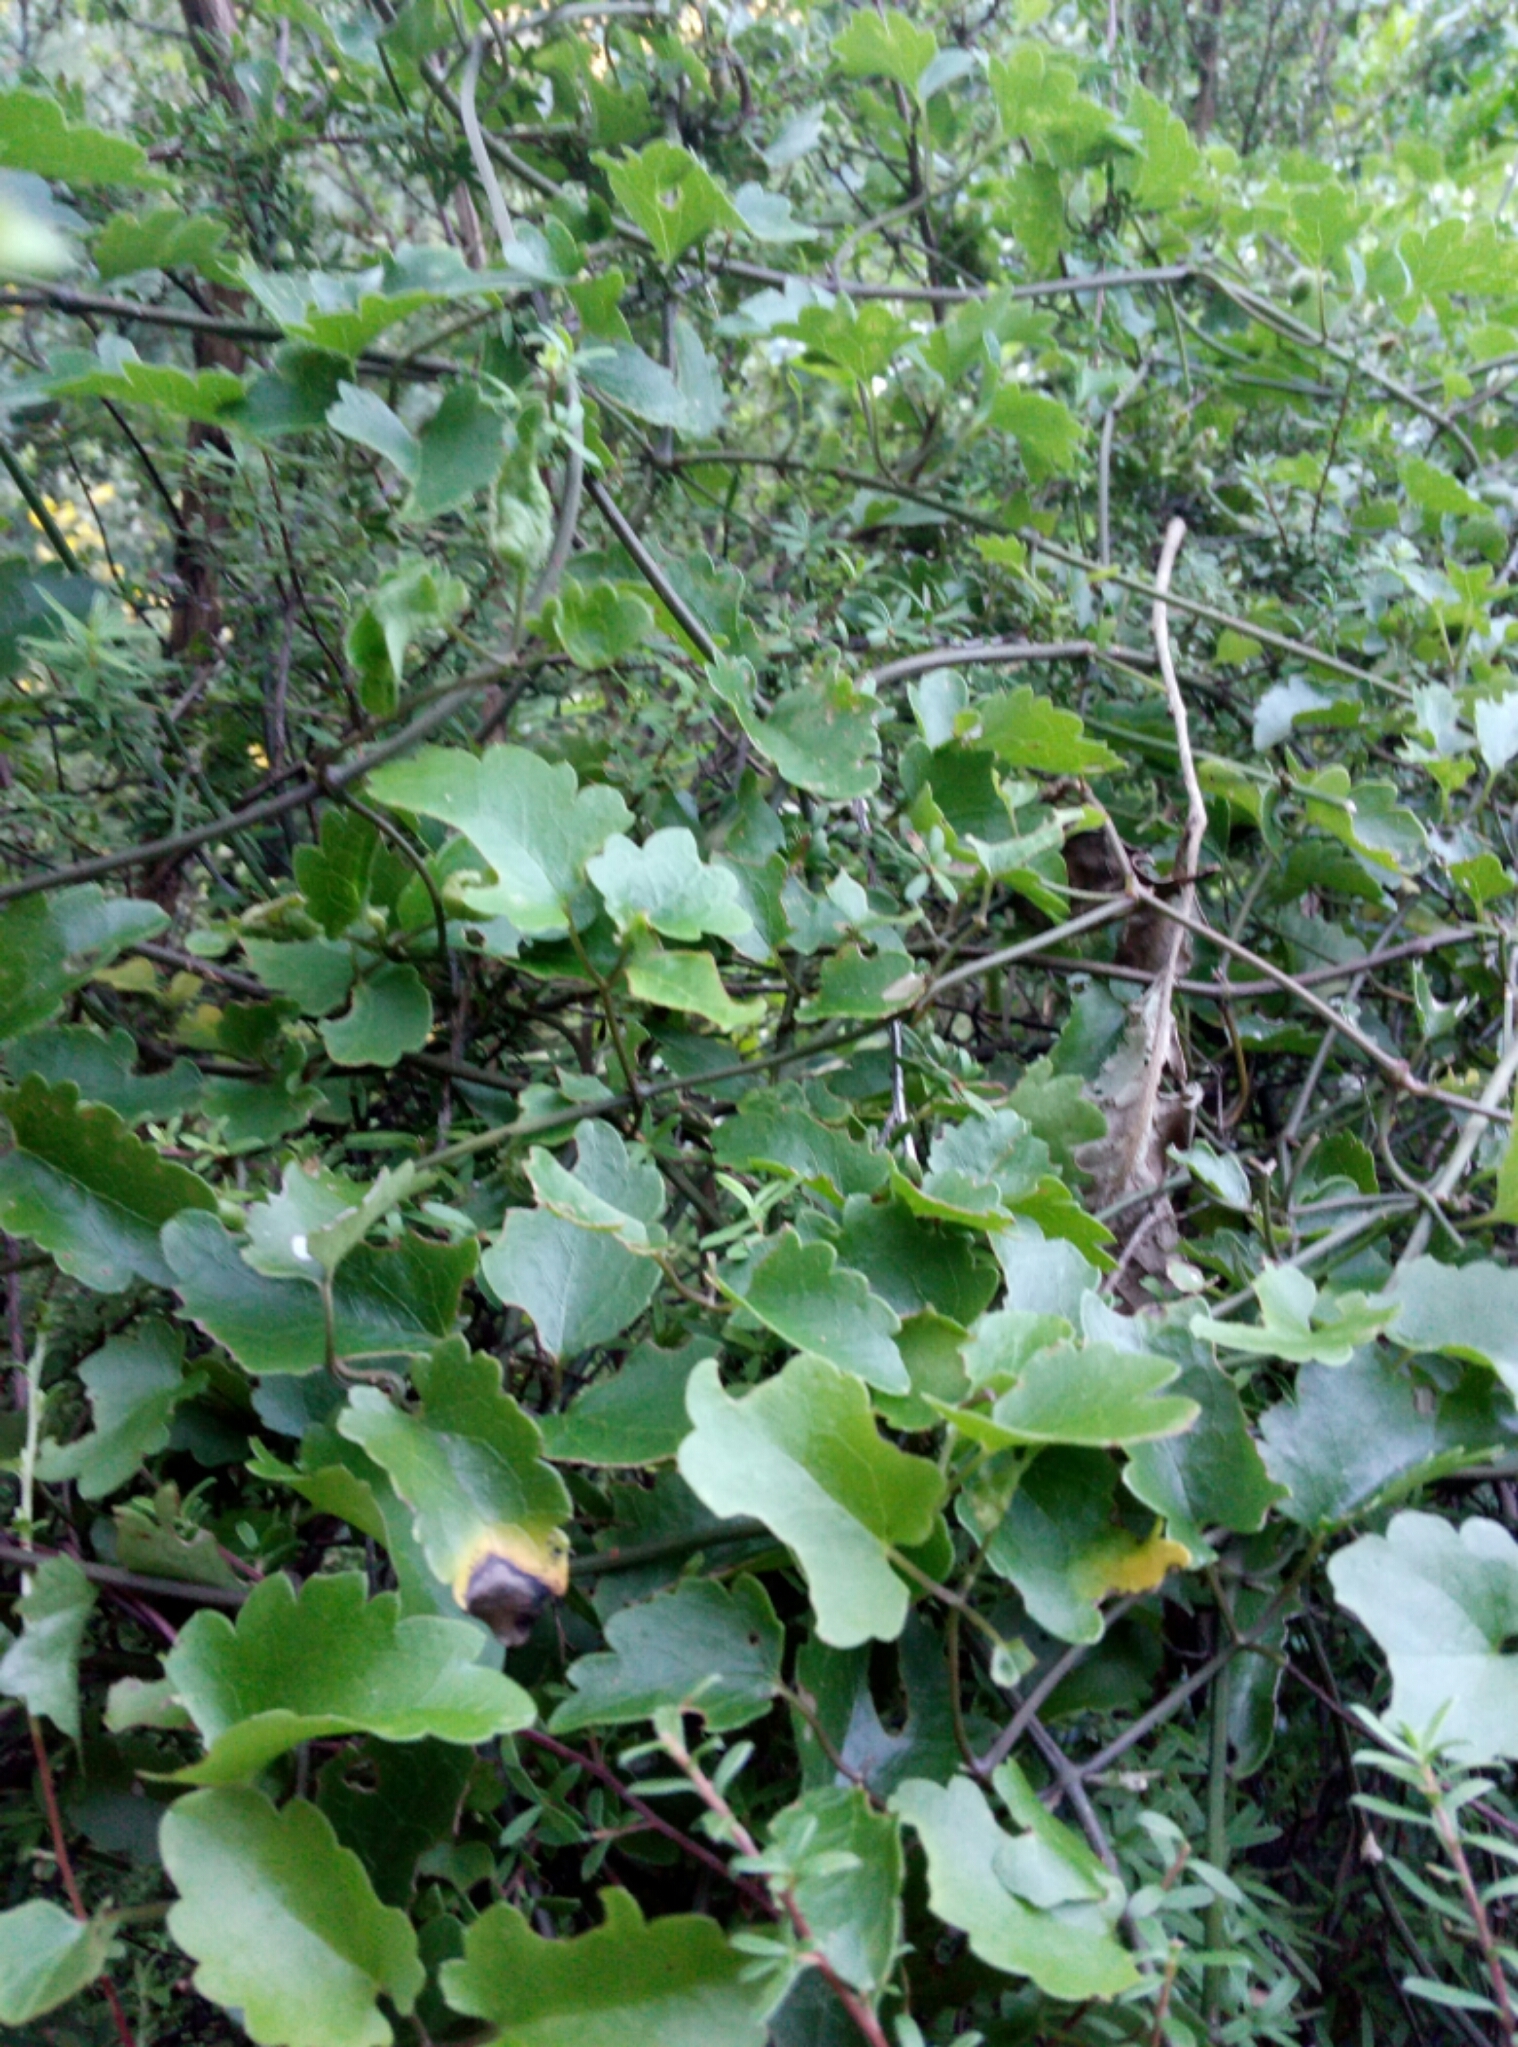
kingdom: Plantae
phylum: Tracheophyta
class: Magnoliopsida
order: Ranunculales
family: Ranunculaceae
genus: Clematis
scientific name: Clematis forsteri
